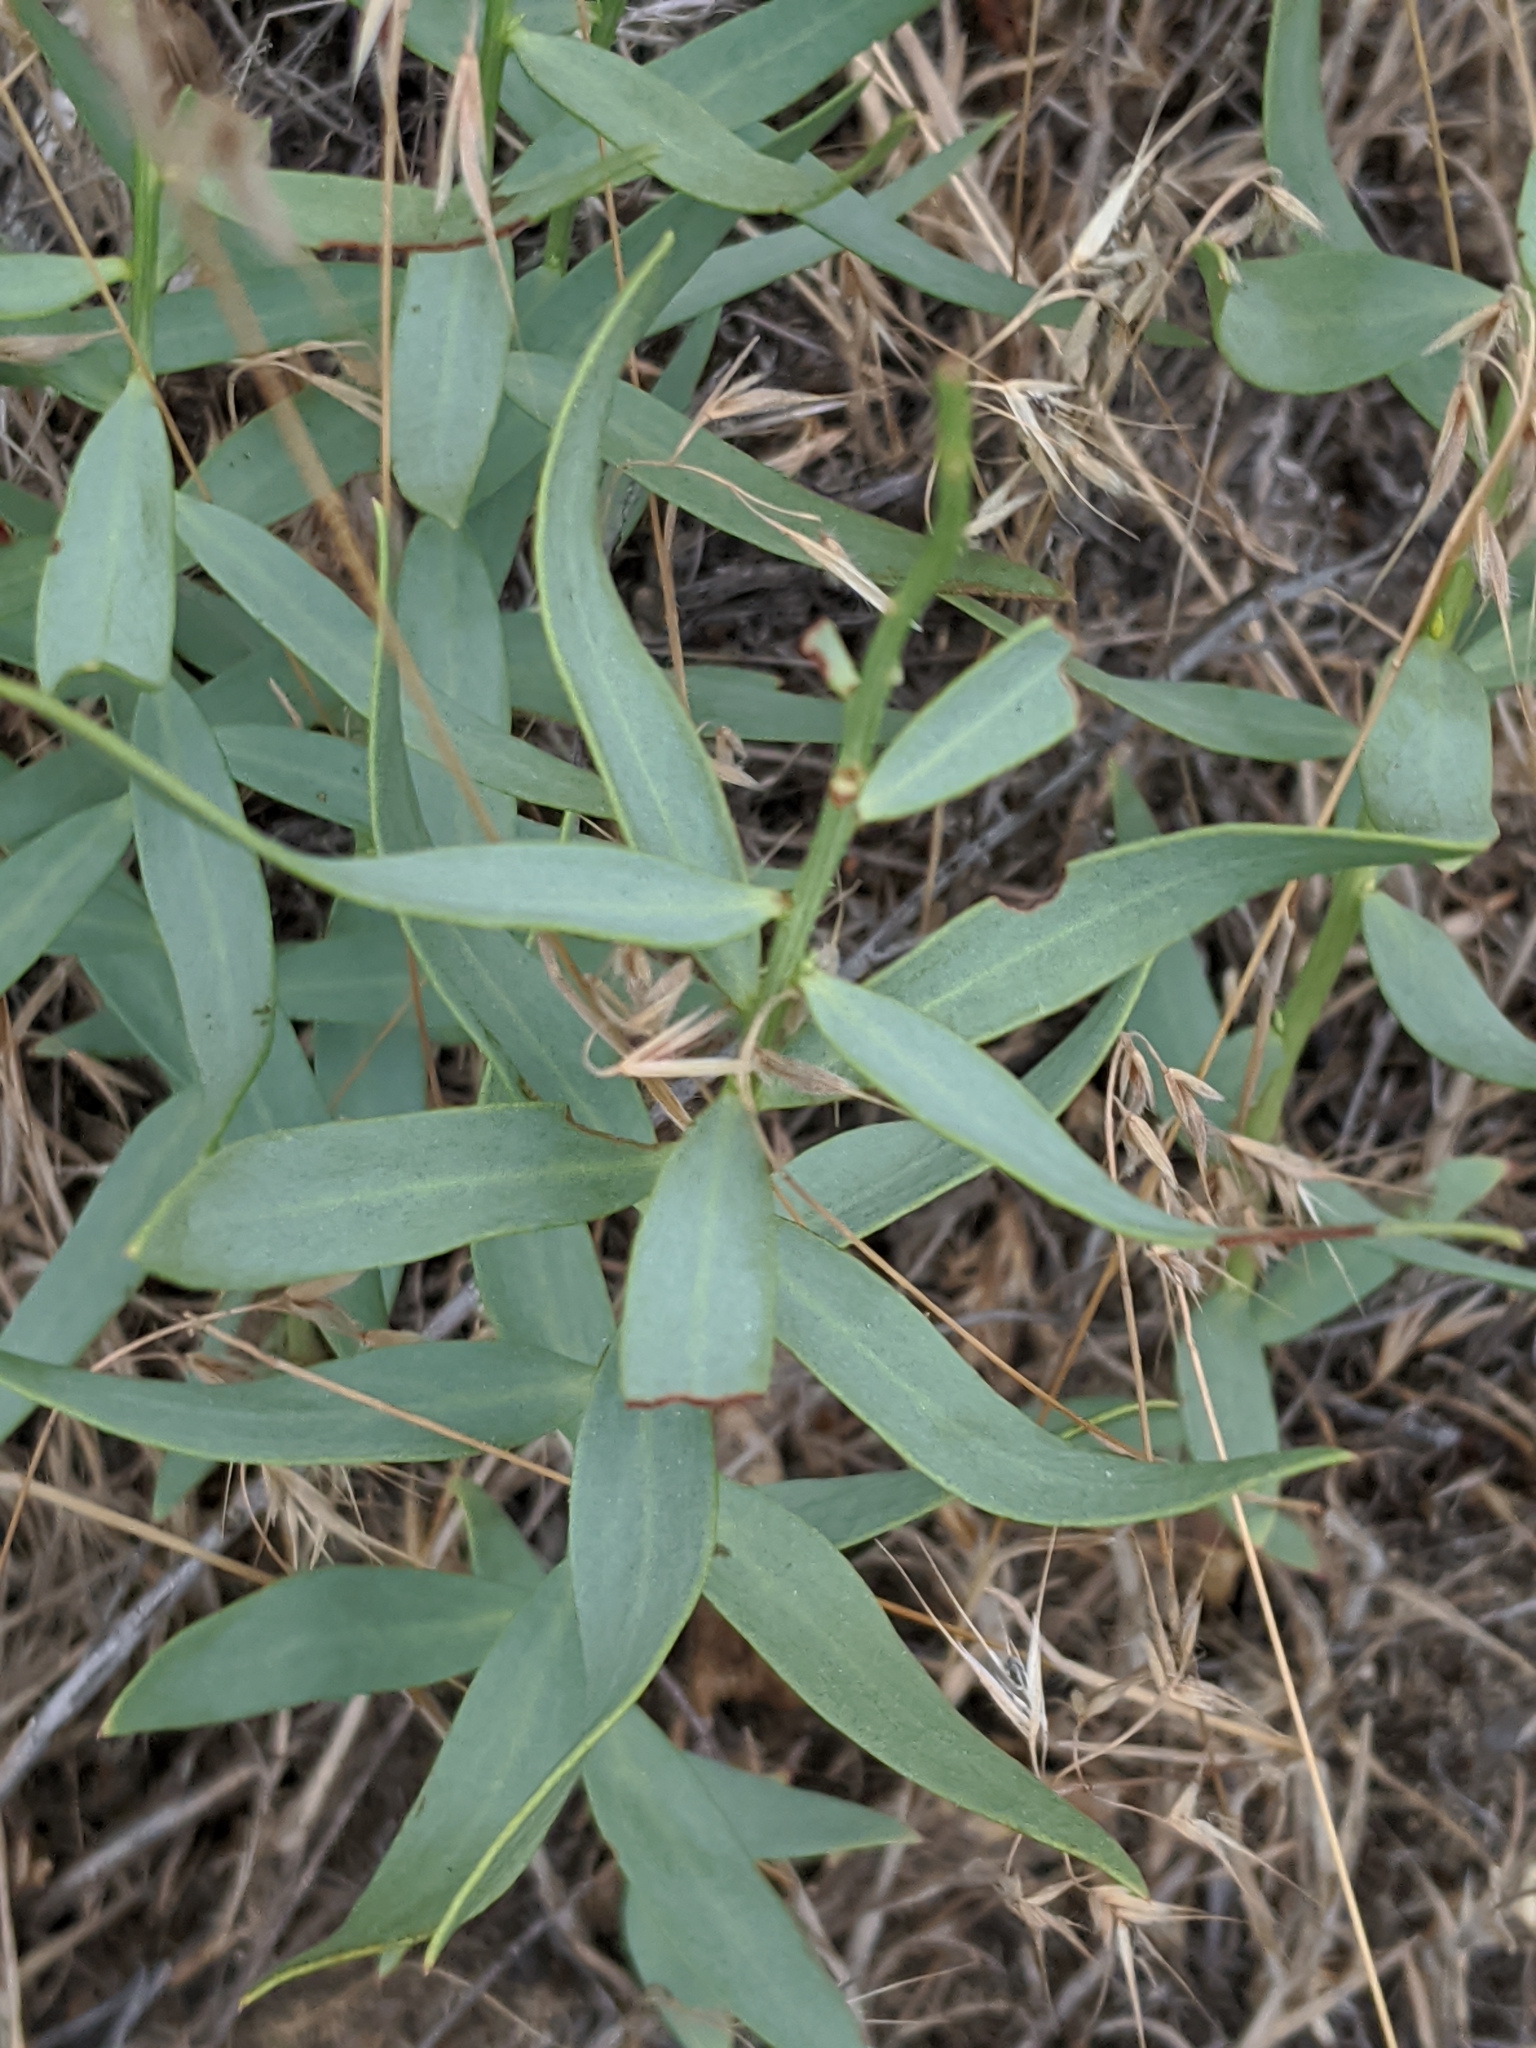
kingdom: Plantae
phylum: Tracheophyta
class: Magnoliopsida
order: Santalales
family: Comandraceae
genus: Comandra
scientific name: Comandra umbellata
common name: Bastard toadflax
